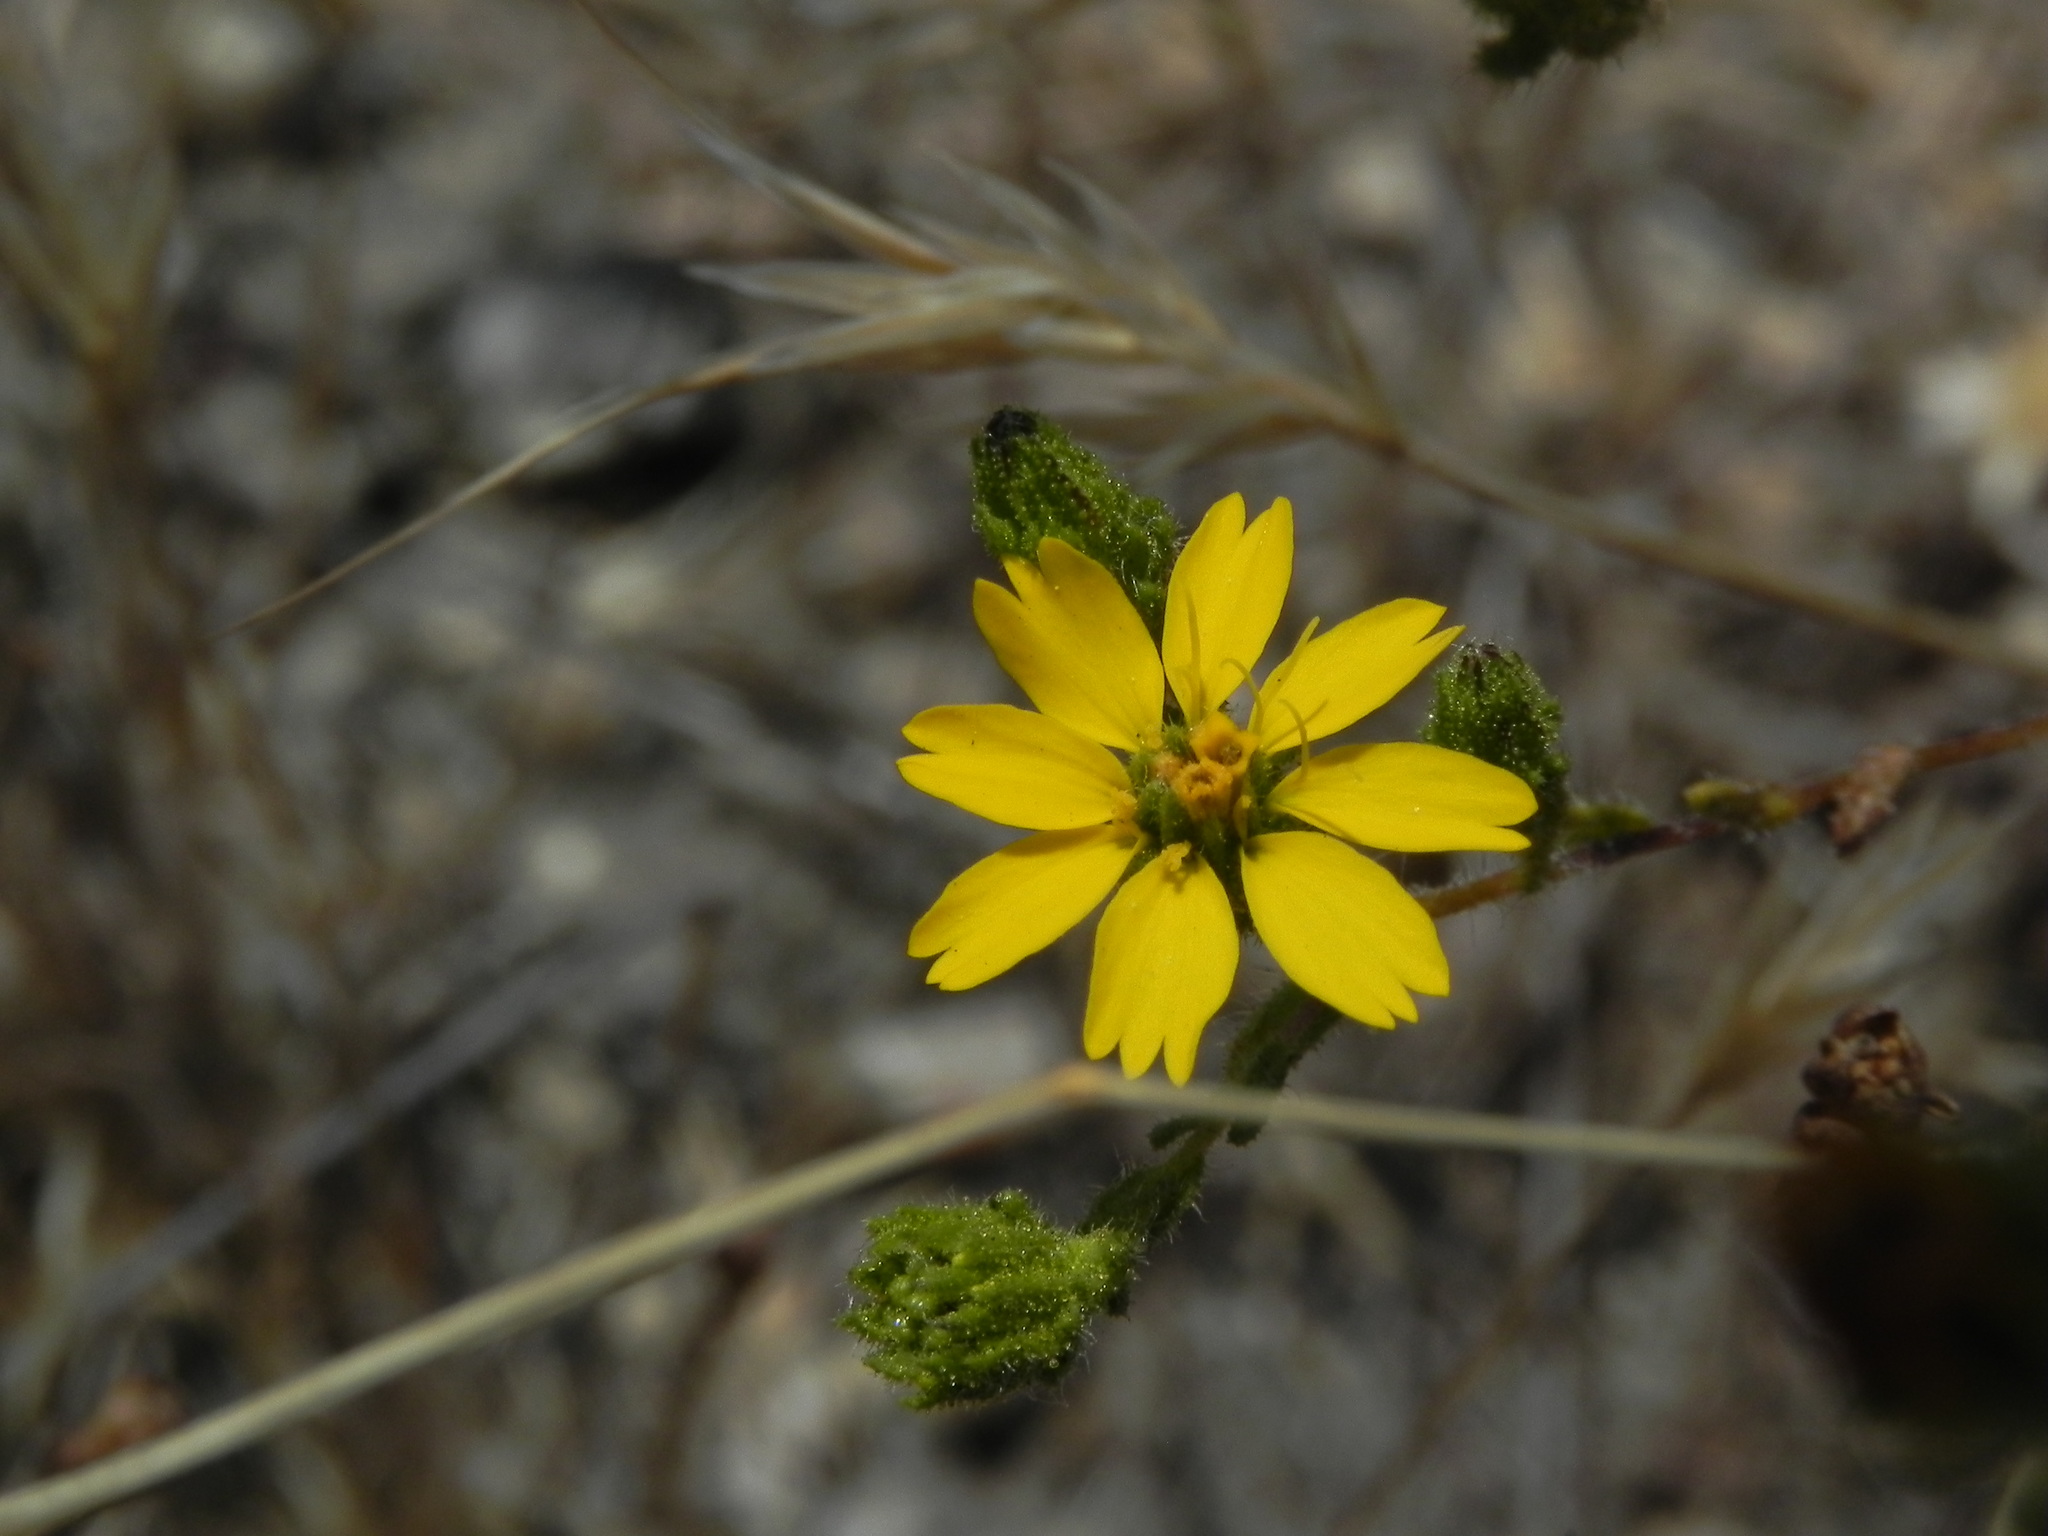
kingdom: Plantae
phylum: Tracheophyta
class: Magnoliopsida
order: Asterales
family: Asteraceae
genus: Deinandra
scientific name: Deinandra conjugens
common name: Otay tarplant
